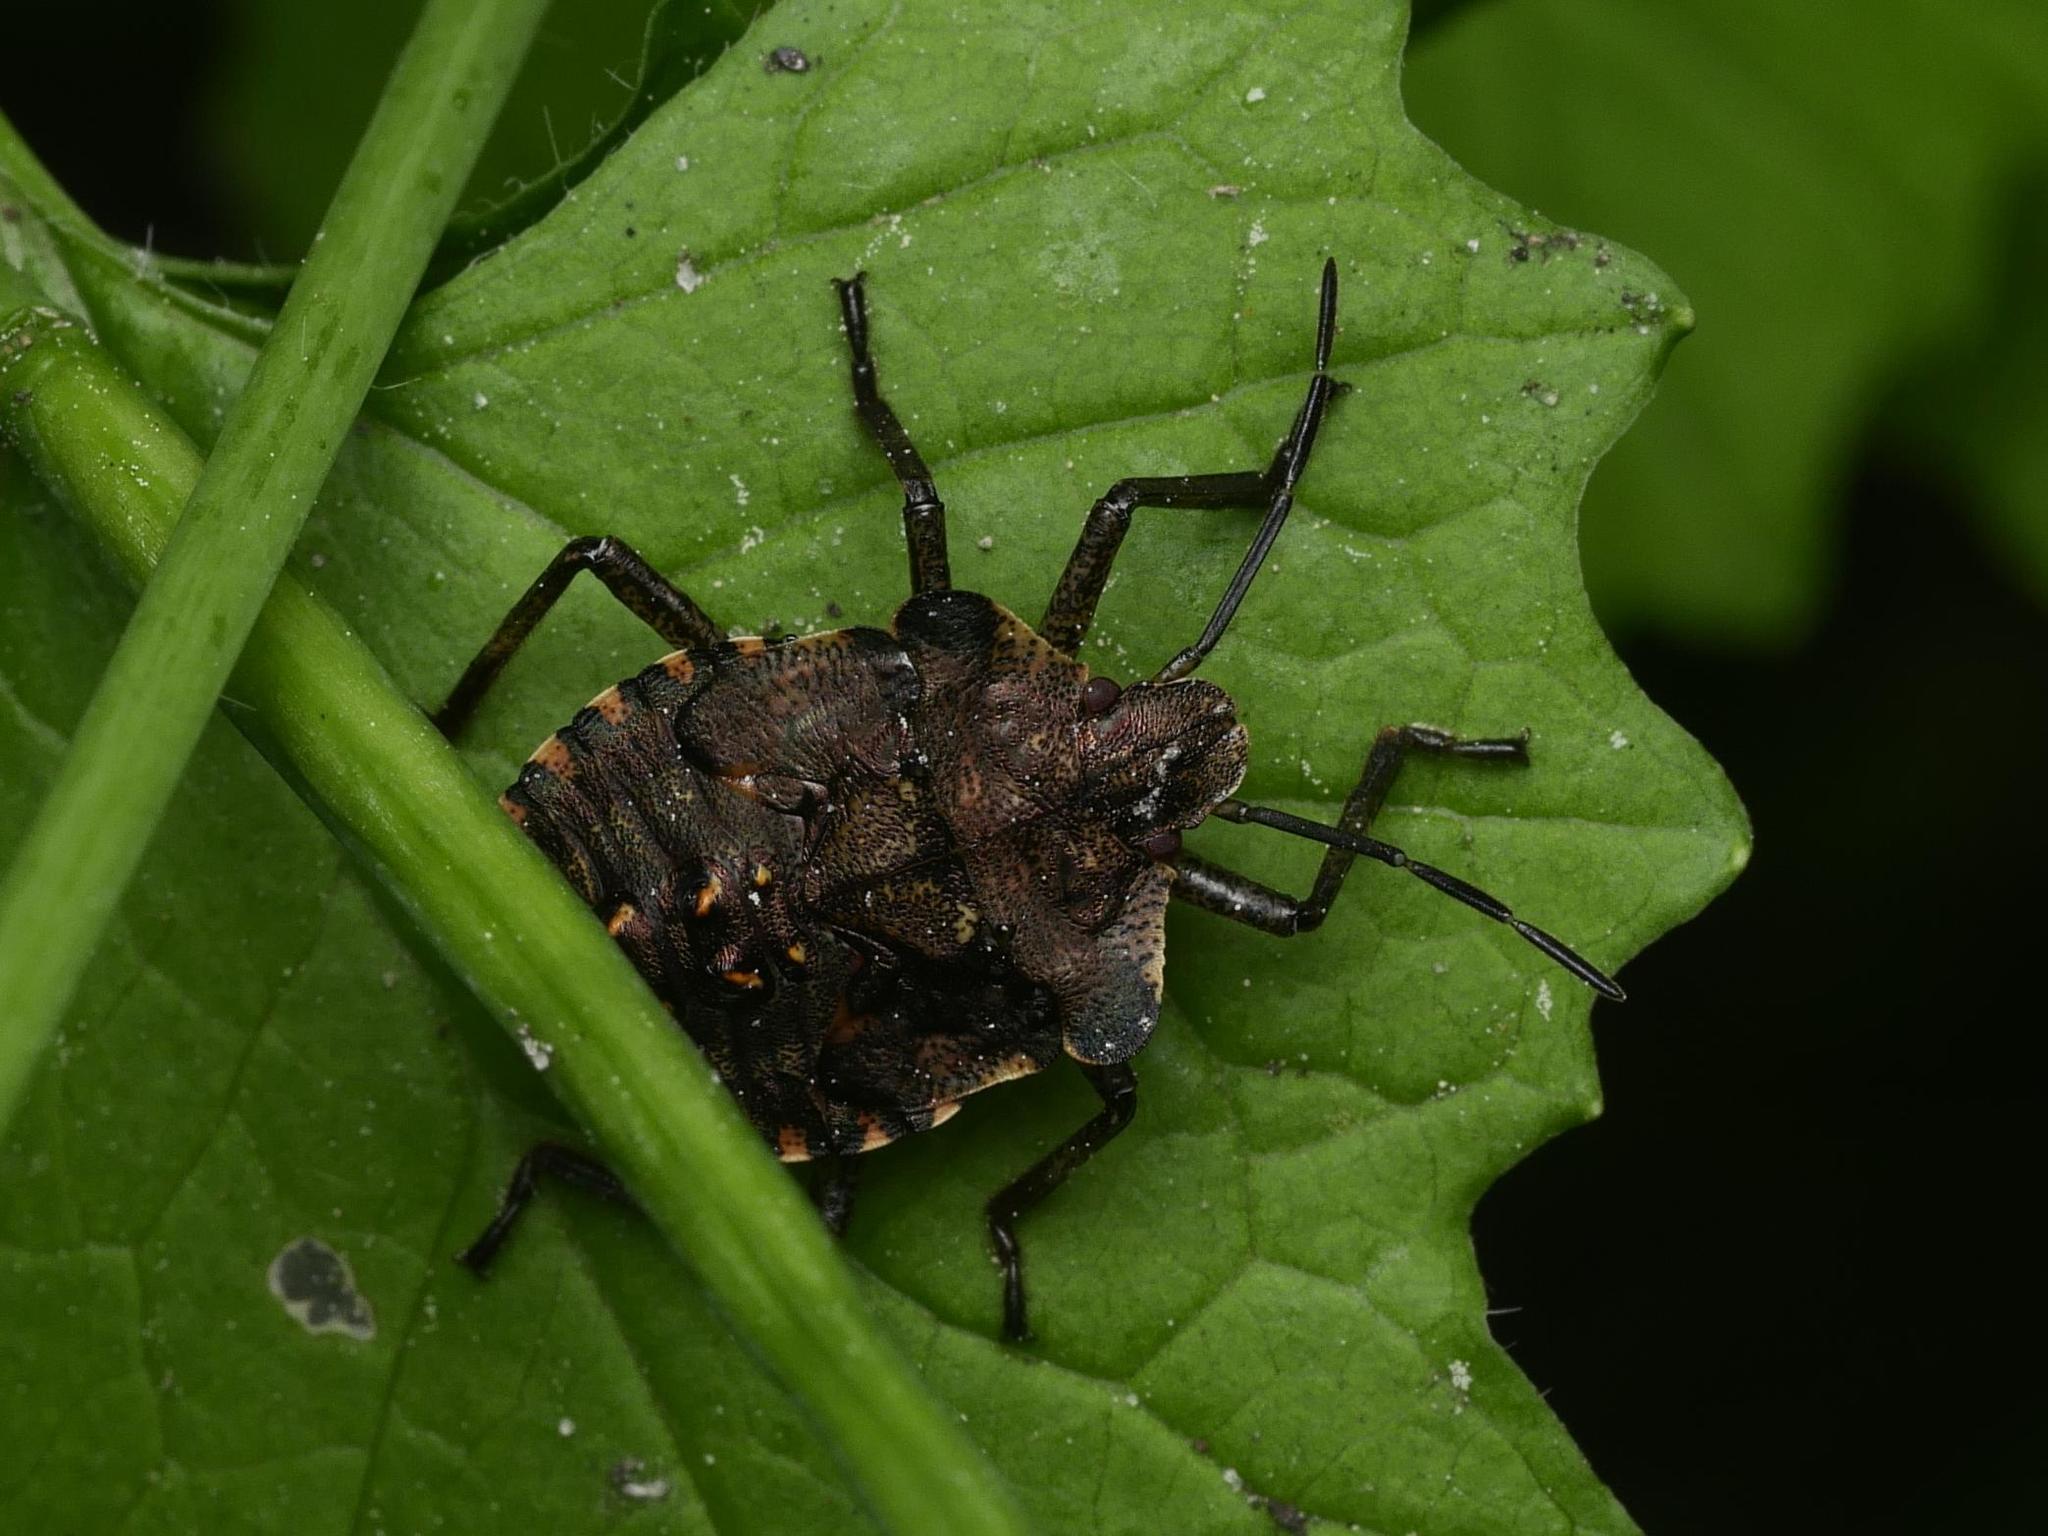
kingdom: Animalia
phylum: Arthropoda
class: Insecta
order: Hemiptera
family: Pentatomidae
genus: Pentatoma
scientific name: Pentatoma rufipes
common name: Forest bug
